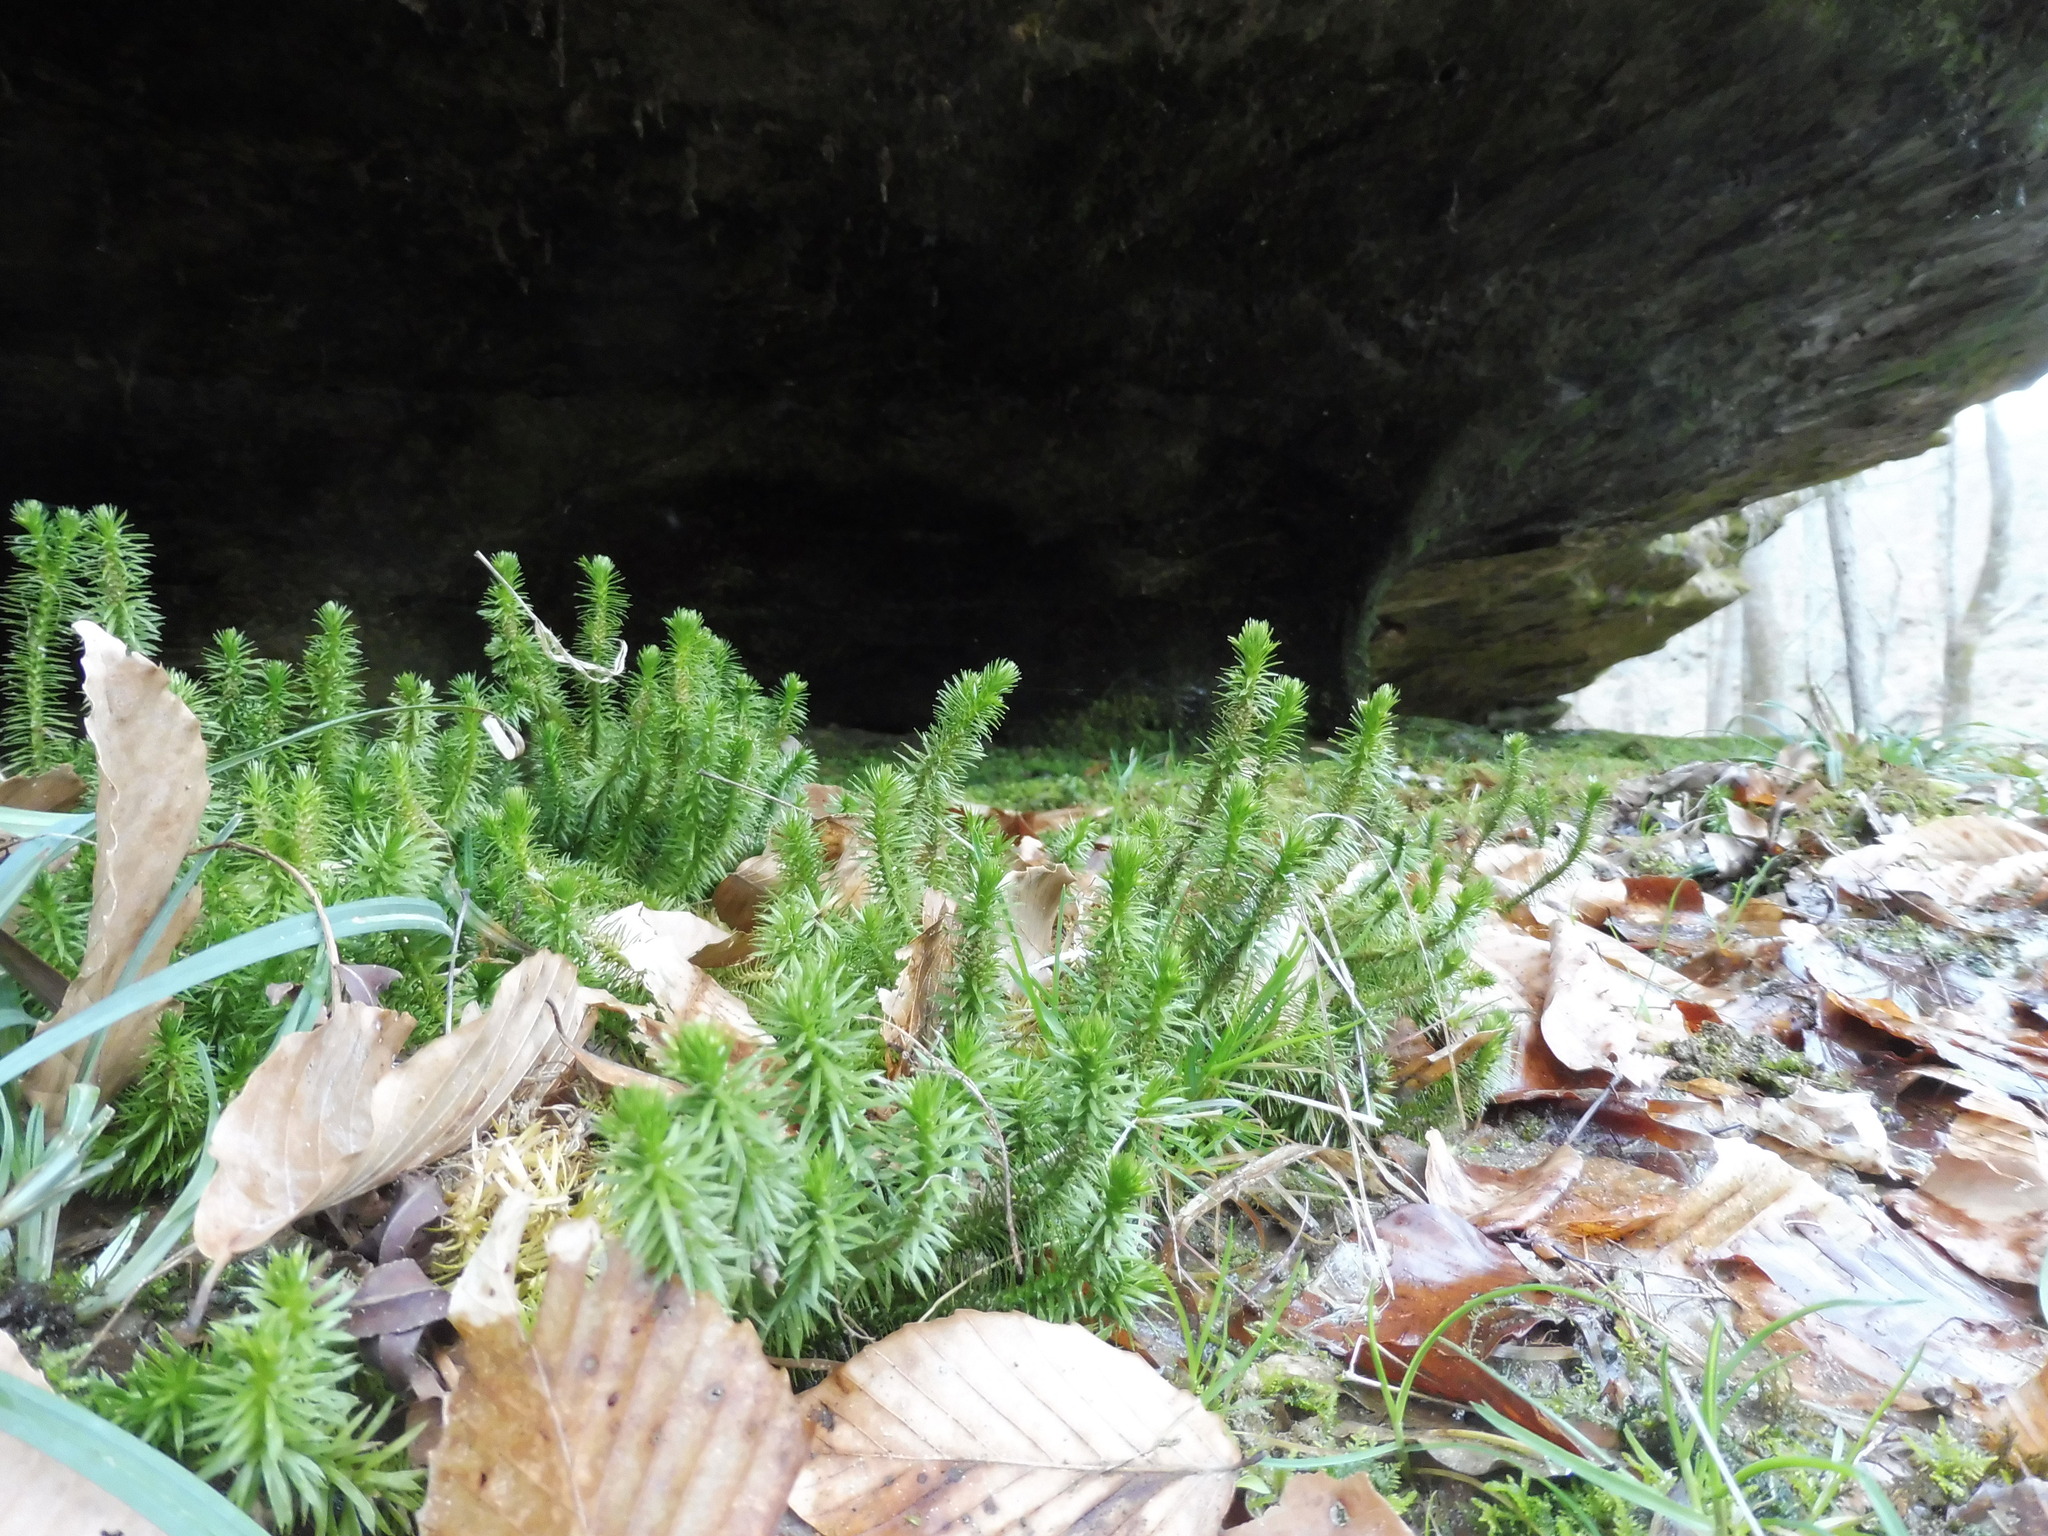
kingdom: Plantae
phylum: Tracheophyta
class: Lycopodiopsida
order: Lycopodiales
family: Lycopodiaceae
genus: Huperzia
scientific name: Huperzia porophila
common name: Rock clubmoss
